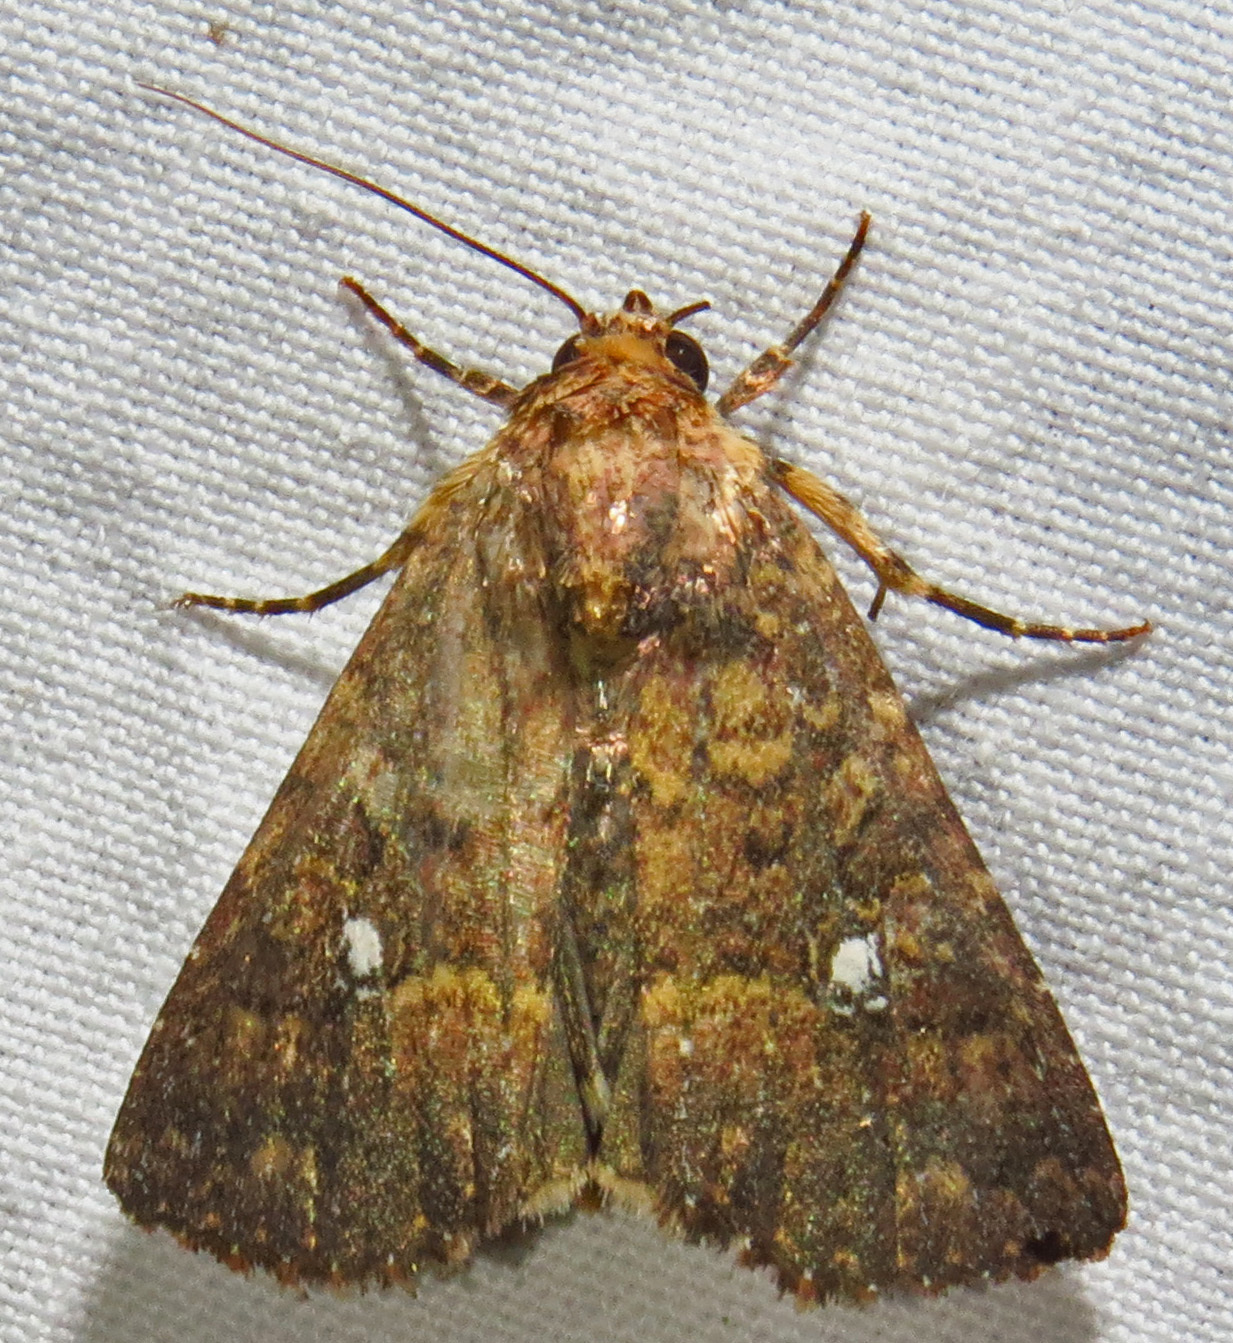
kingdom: Animalia
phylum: Arthropoda
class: Insecta
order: Lepidoptera
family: Noctuidae
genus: Condica
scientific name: Condica mobilis
